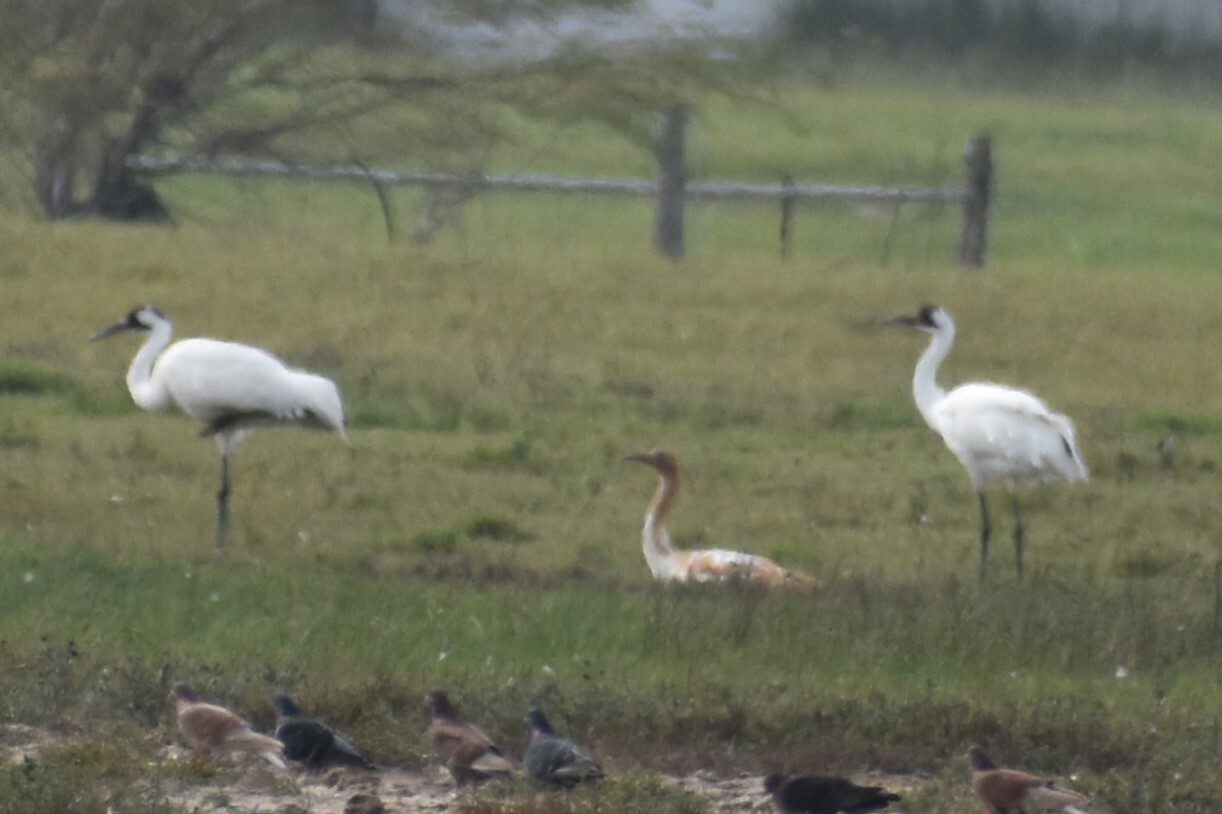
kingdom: Animalia
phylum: Chordata
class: Aves
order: Gruiformes
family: Gruidae
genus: Grus
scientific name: Grus americana
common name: Whooping crane
